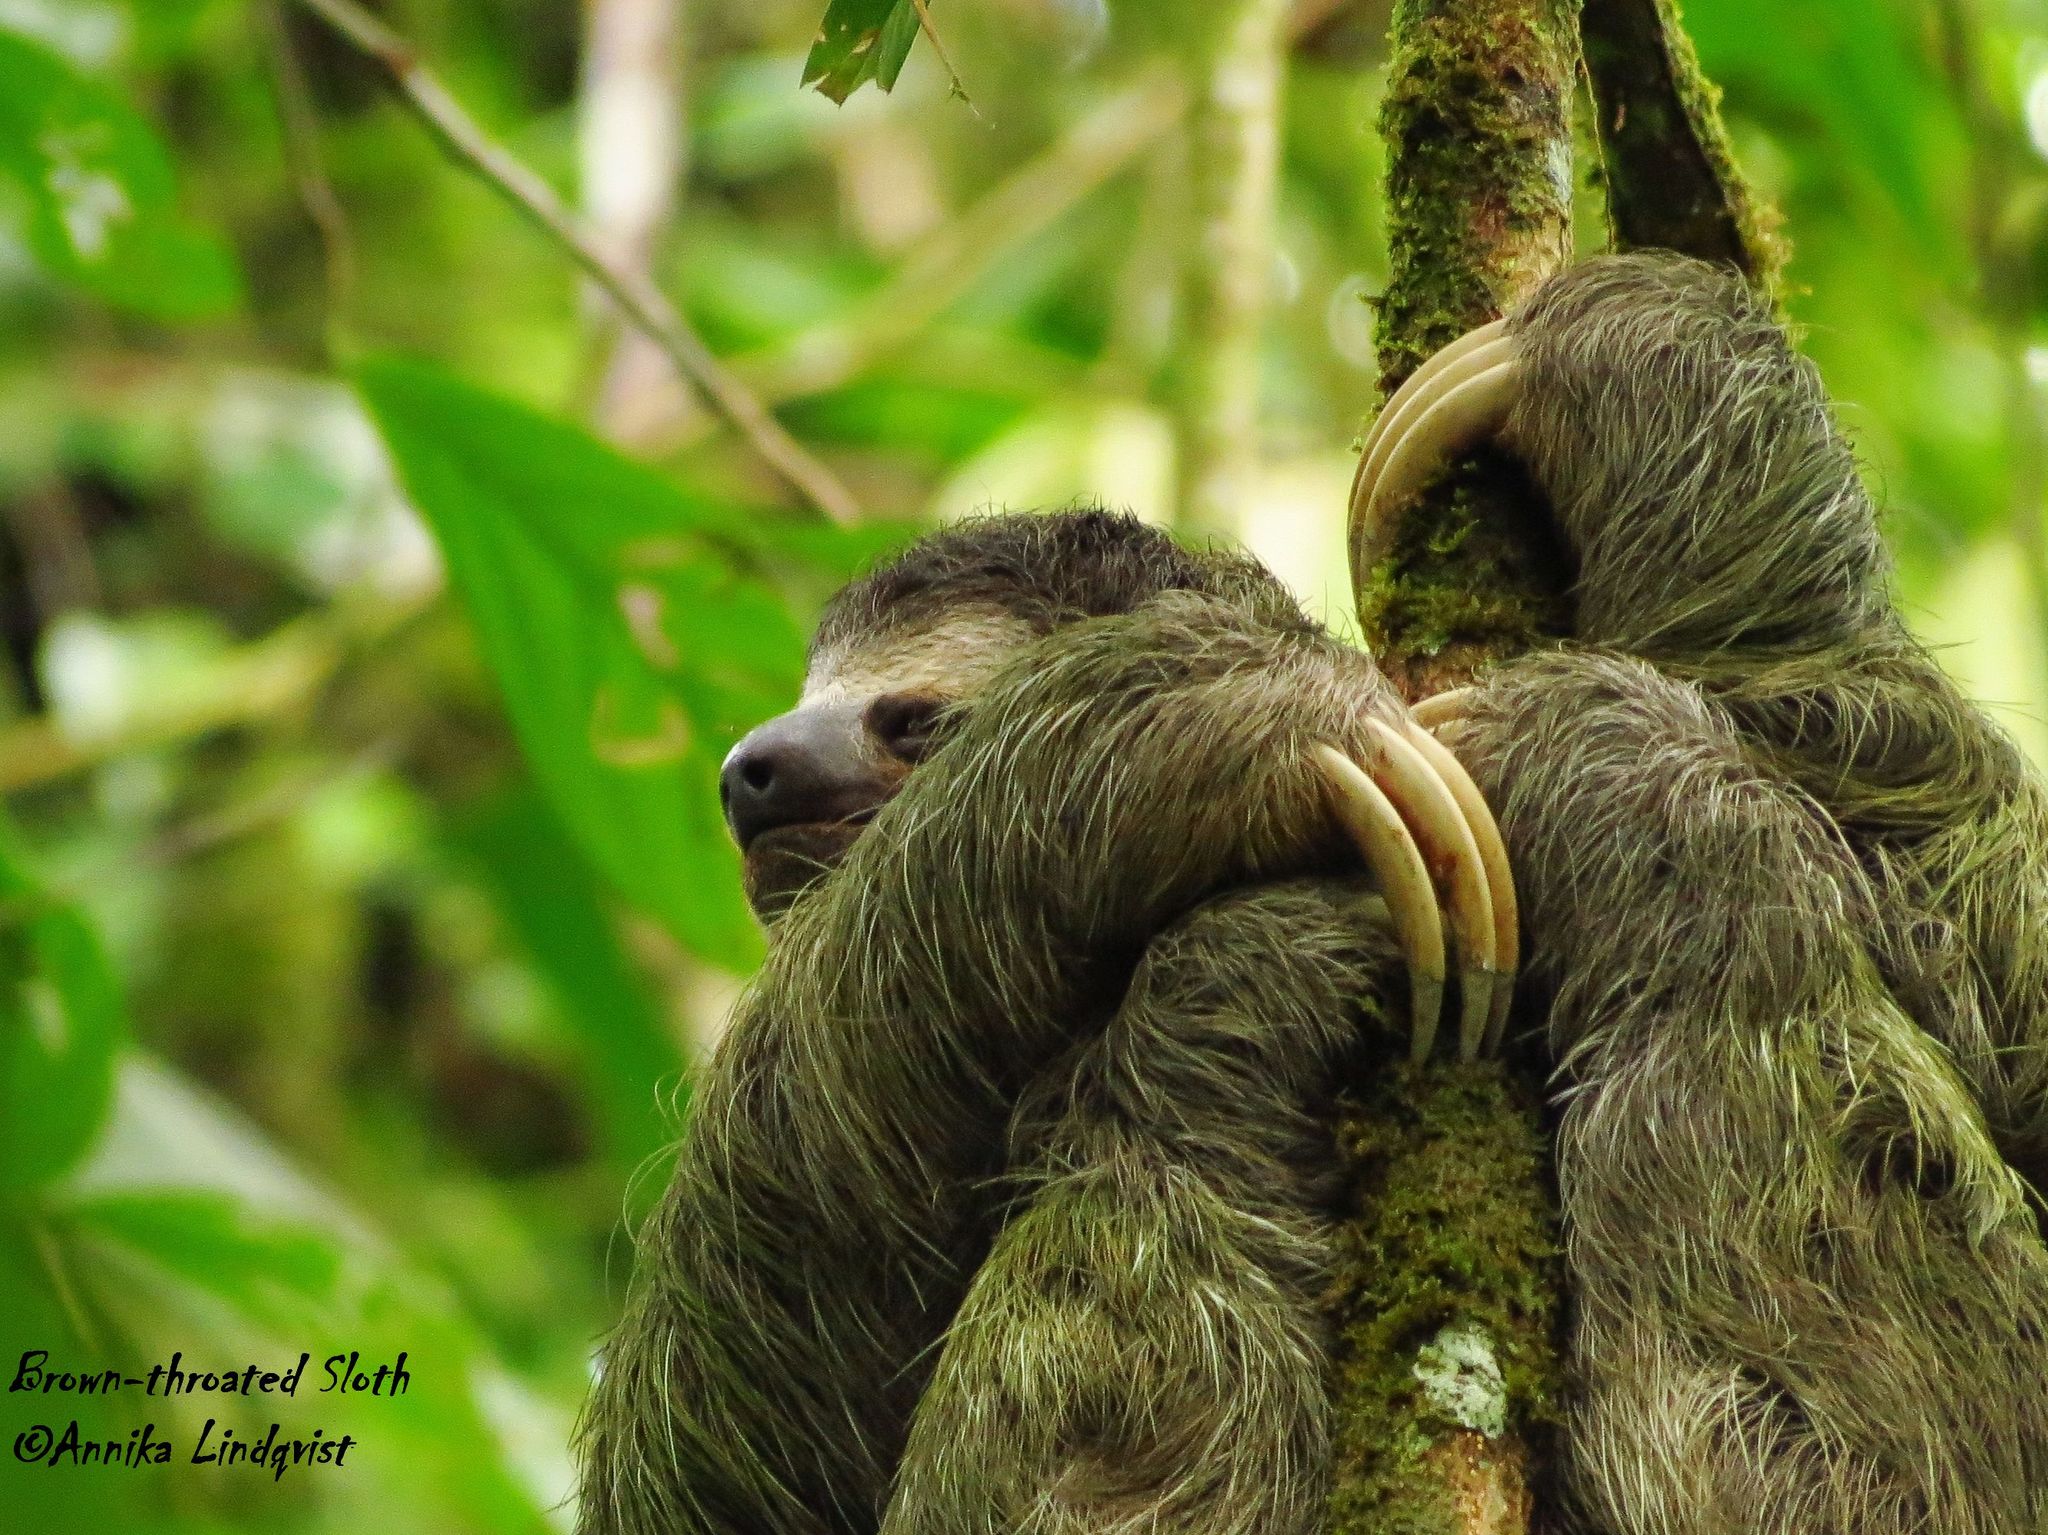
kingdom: Animalia
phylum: Chordata
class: Mammalia
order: Pilosa
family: Bradypodidae
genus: Bradypus
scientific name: Bradypus variegatus
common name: Brown-throated three-toed sloth
